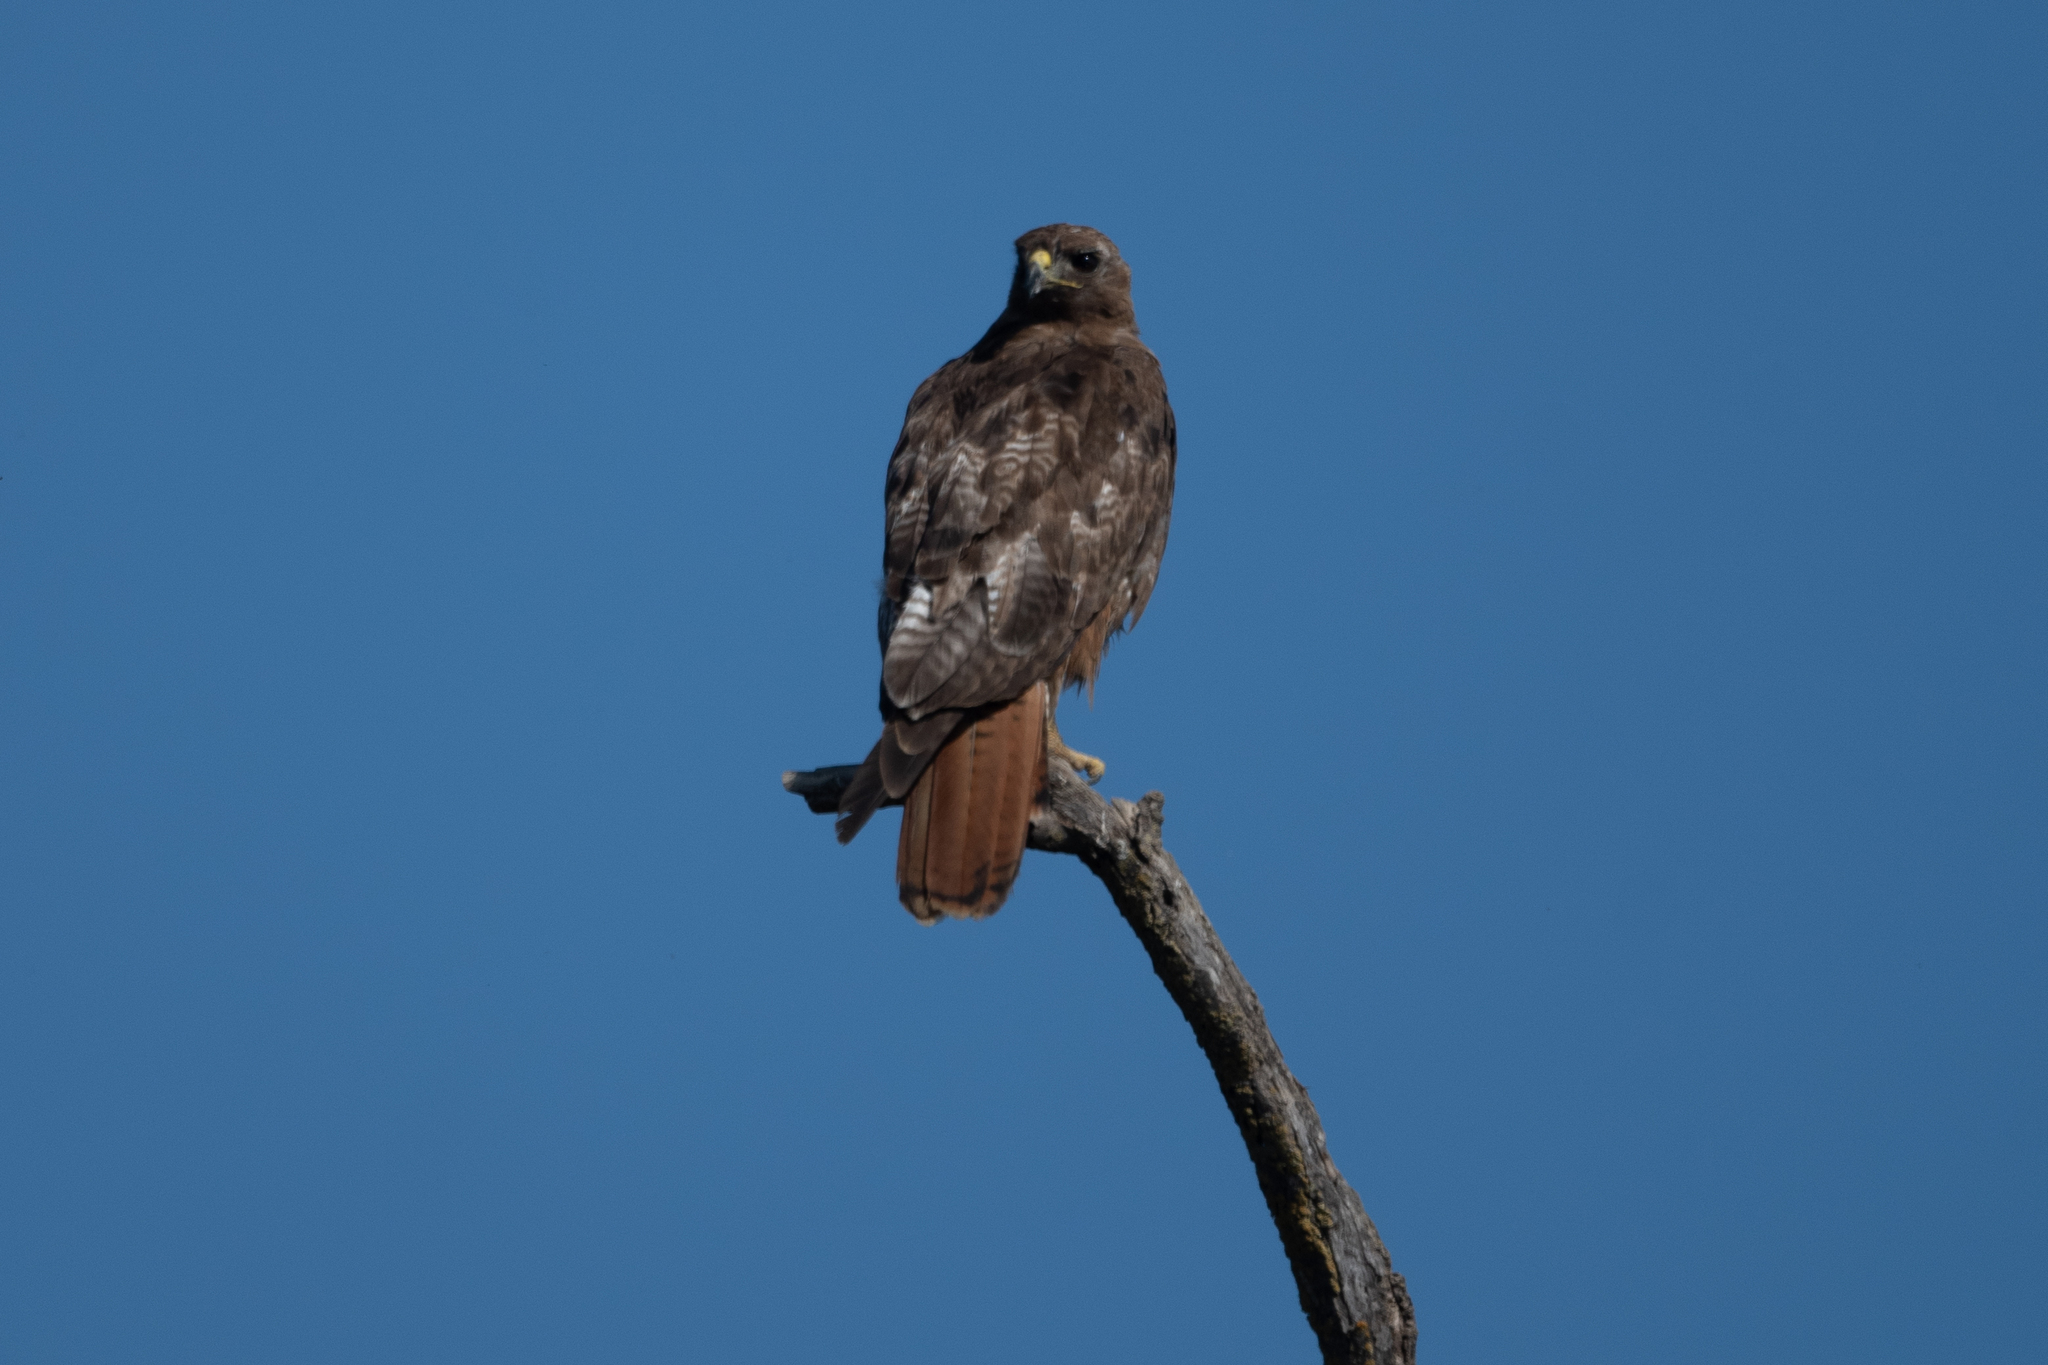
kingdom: Animalia
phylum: Chordata
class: Aves
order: Accipitriformes
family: Accipitridae
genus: Buteo
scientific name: Buteo jamaicensis
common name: Red-tailed hawk
